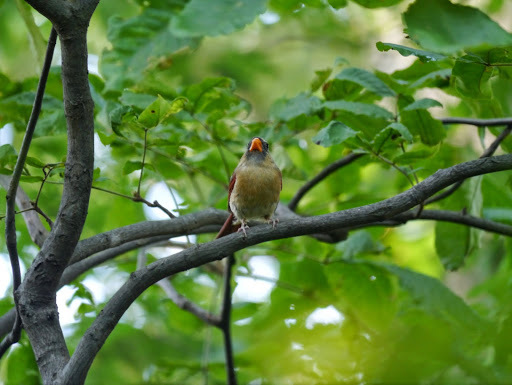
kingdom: Animalia
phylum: Chordata
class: Aves
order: Passeriformes
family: Cardinalidae
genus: Cardinalis
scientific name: Cardinalis cardinalis
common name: Northern cardinal
